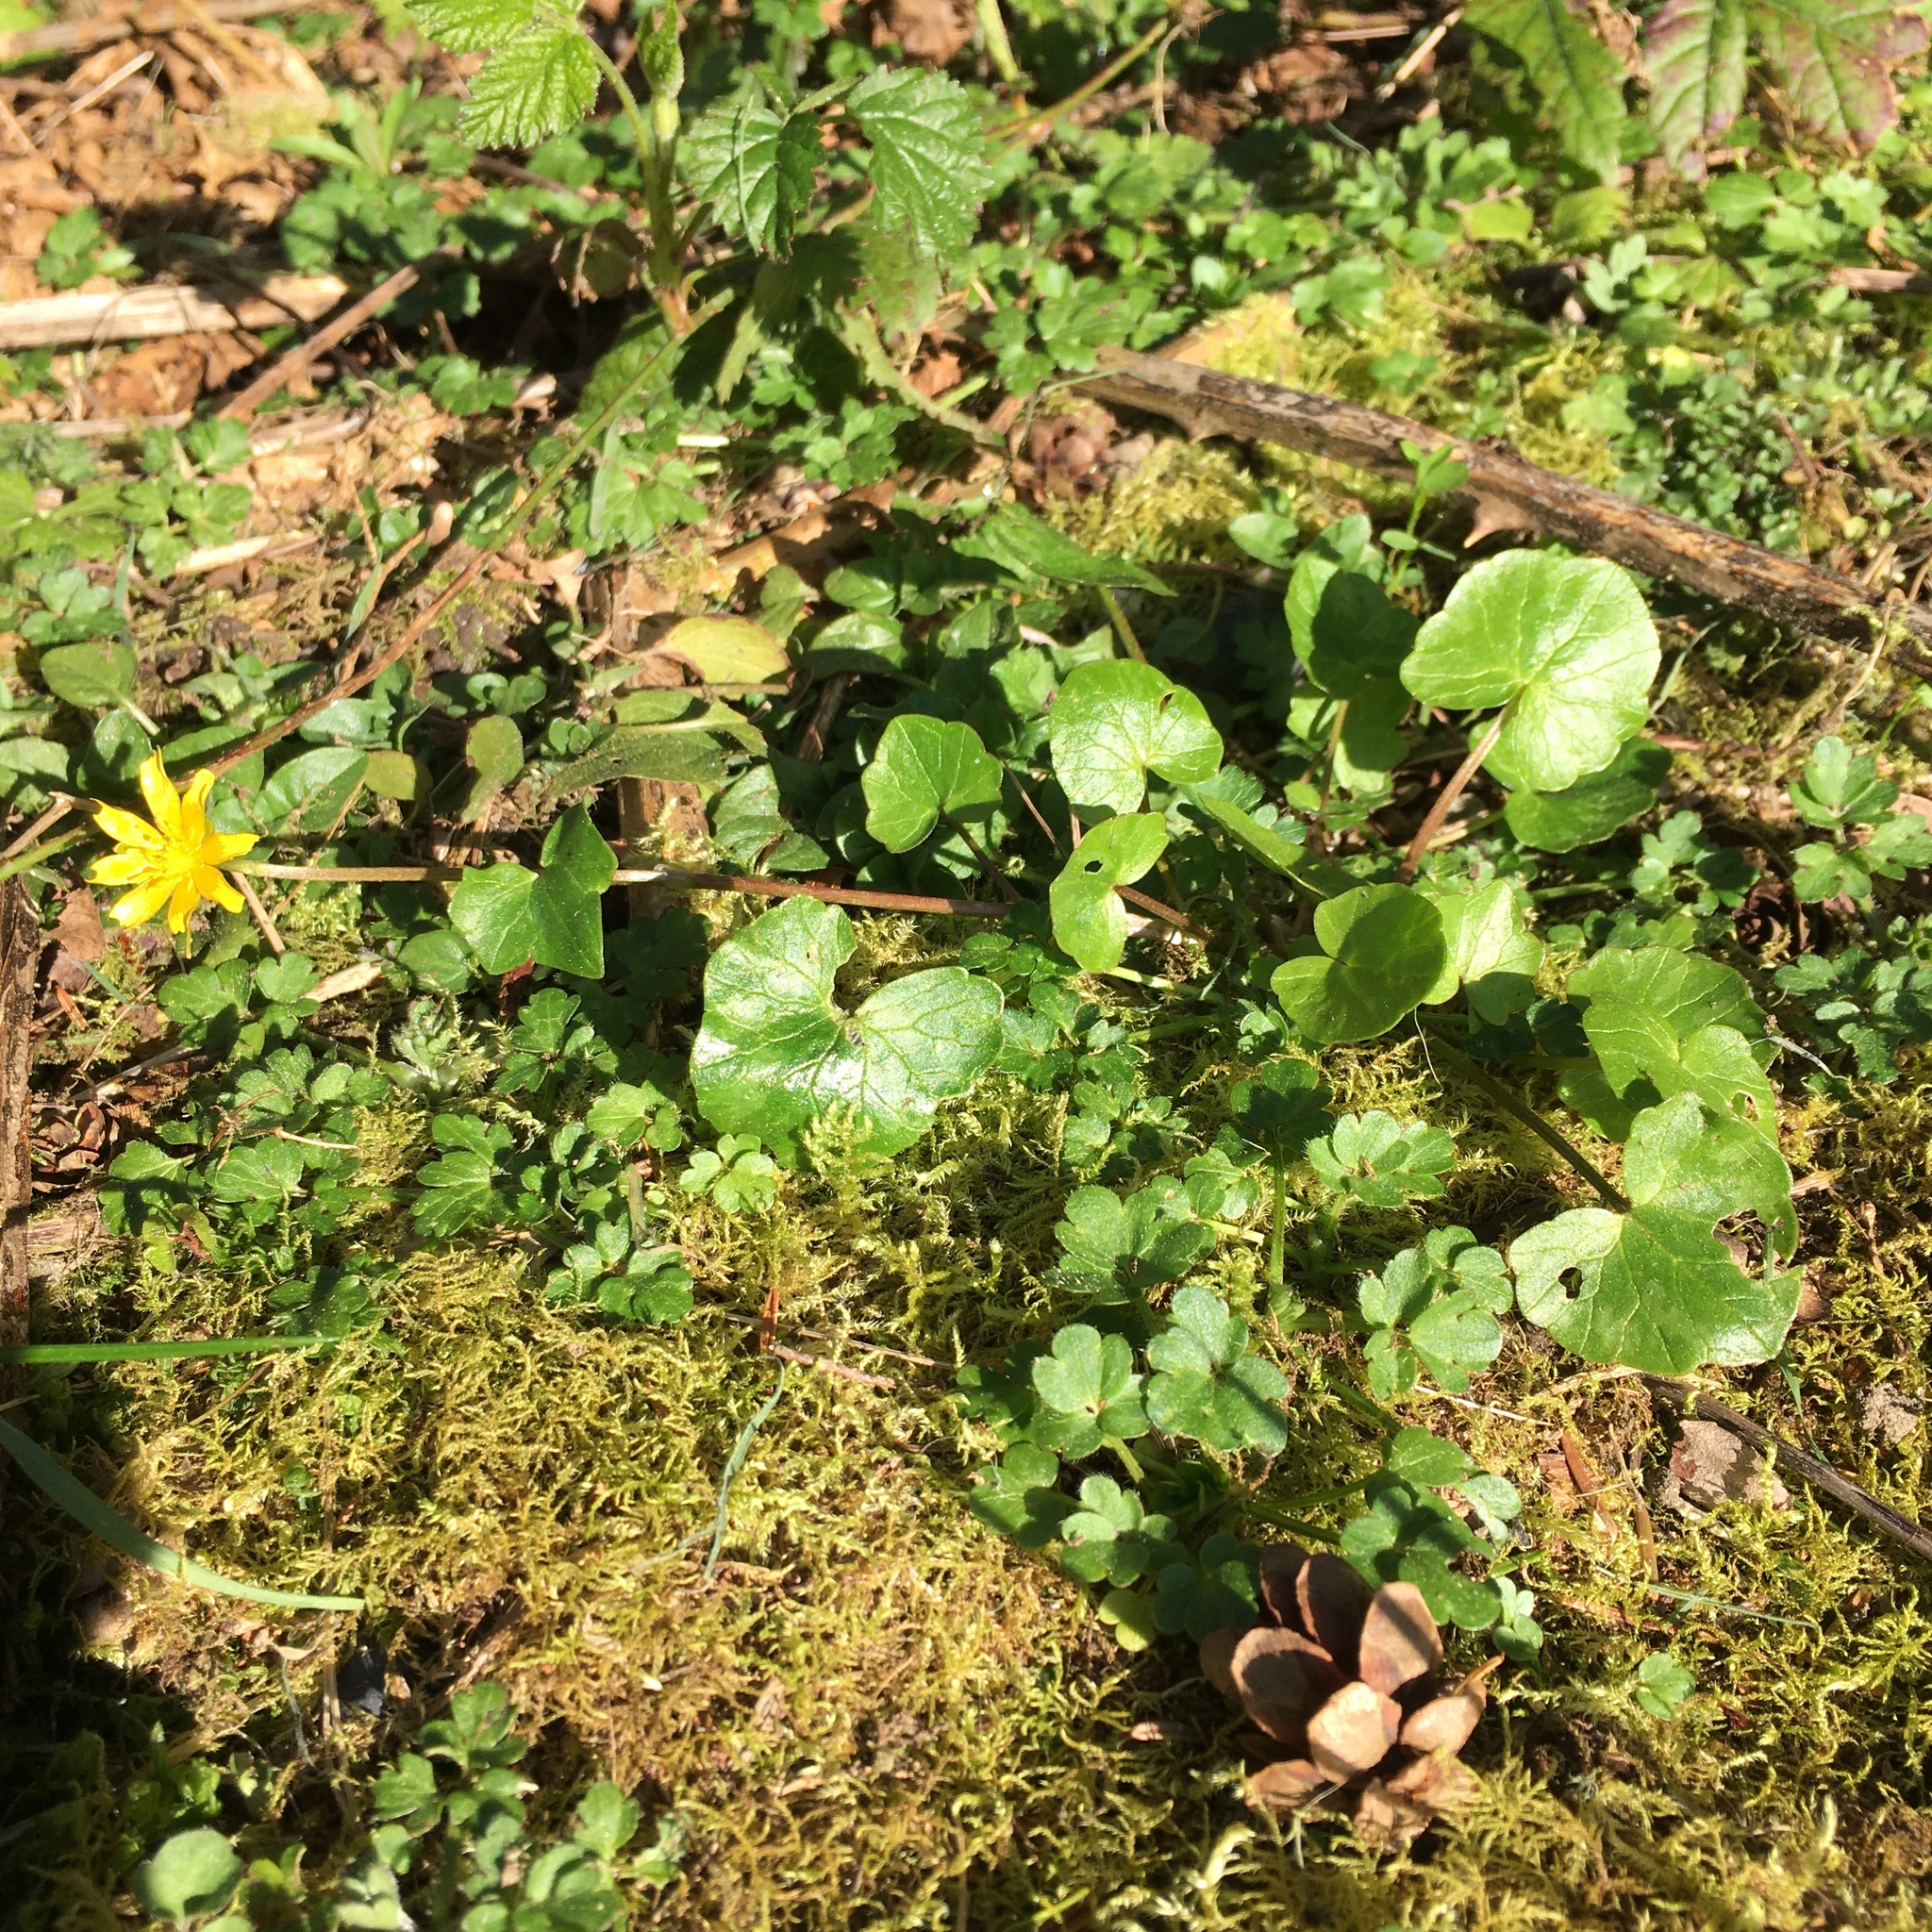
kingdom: Plantae
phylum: Tracheophyta
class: Magnoliopsida
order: Ranunculales
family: Ranunculaceae
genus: Ficaria
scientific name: Ficaria verna
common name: Lesser celandine
